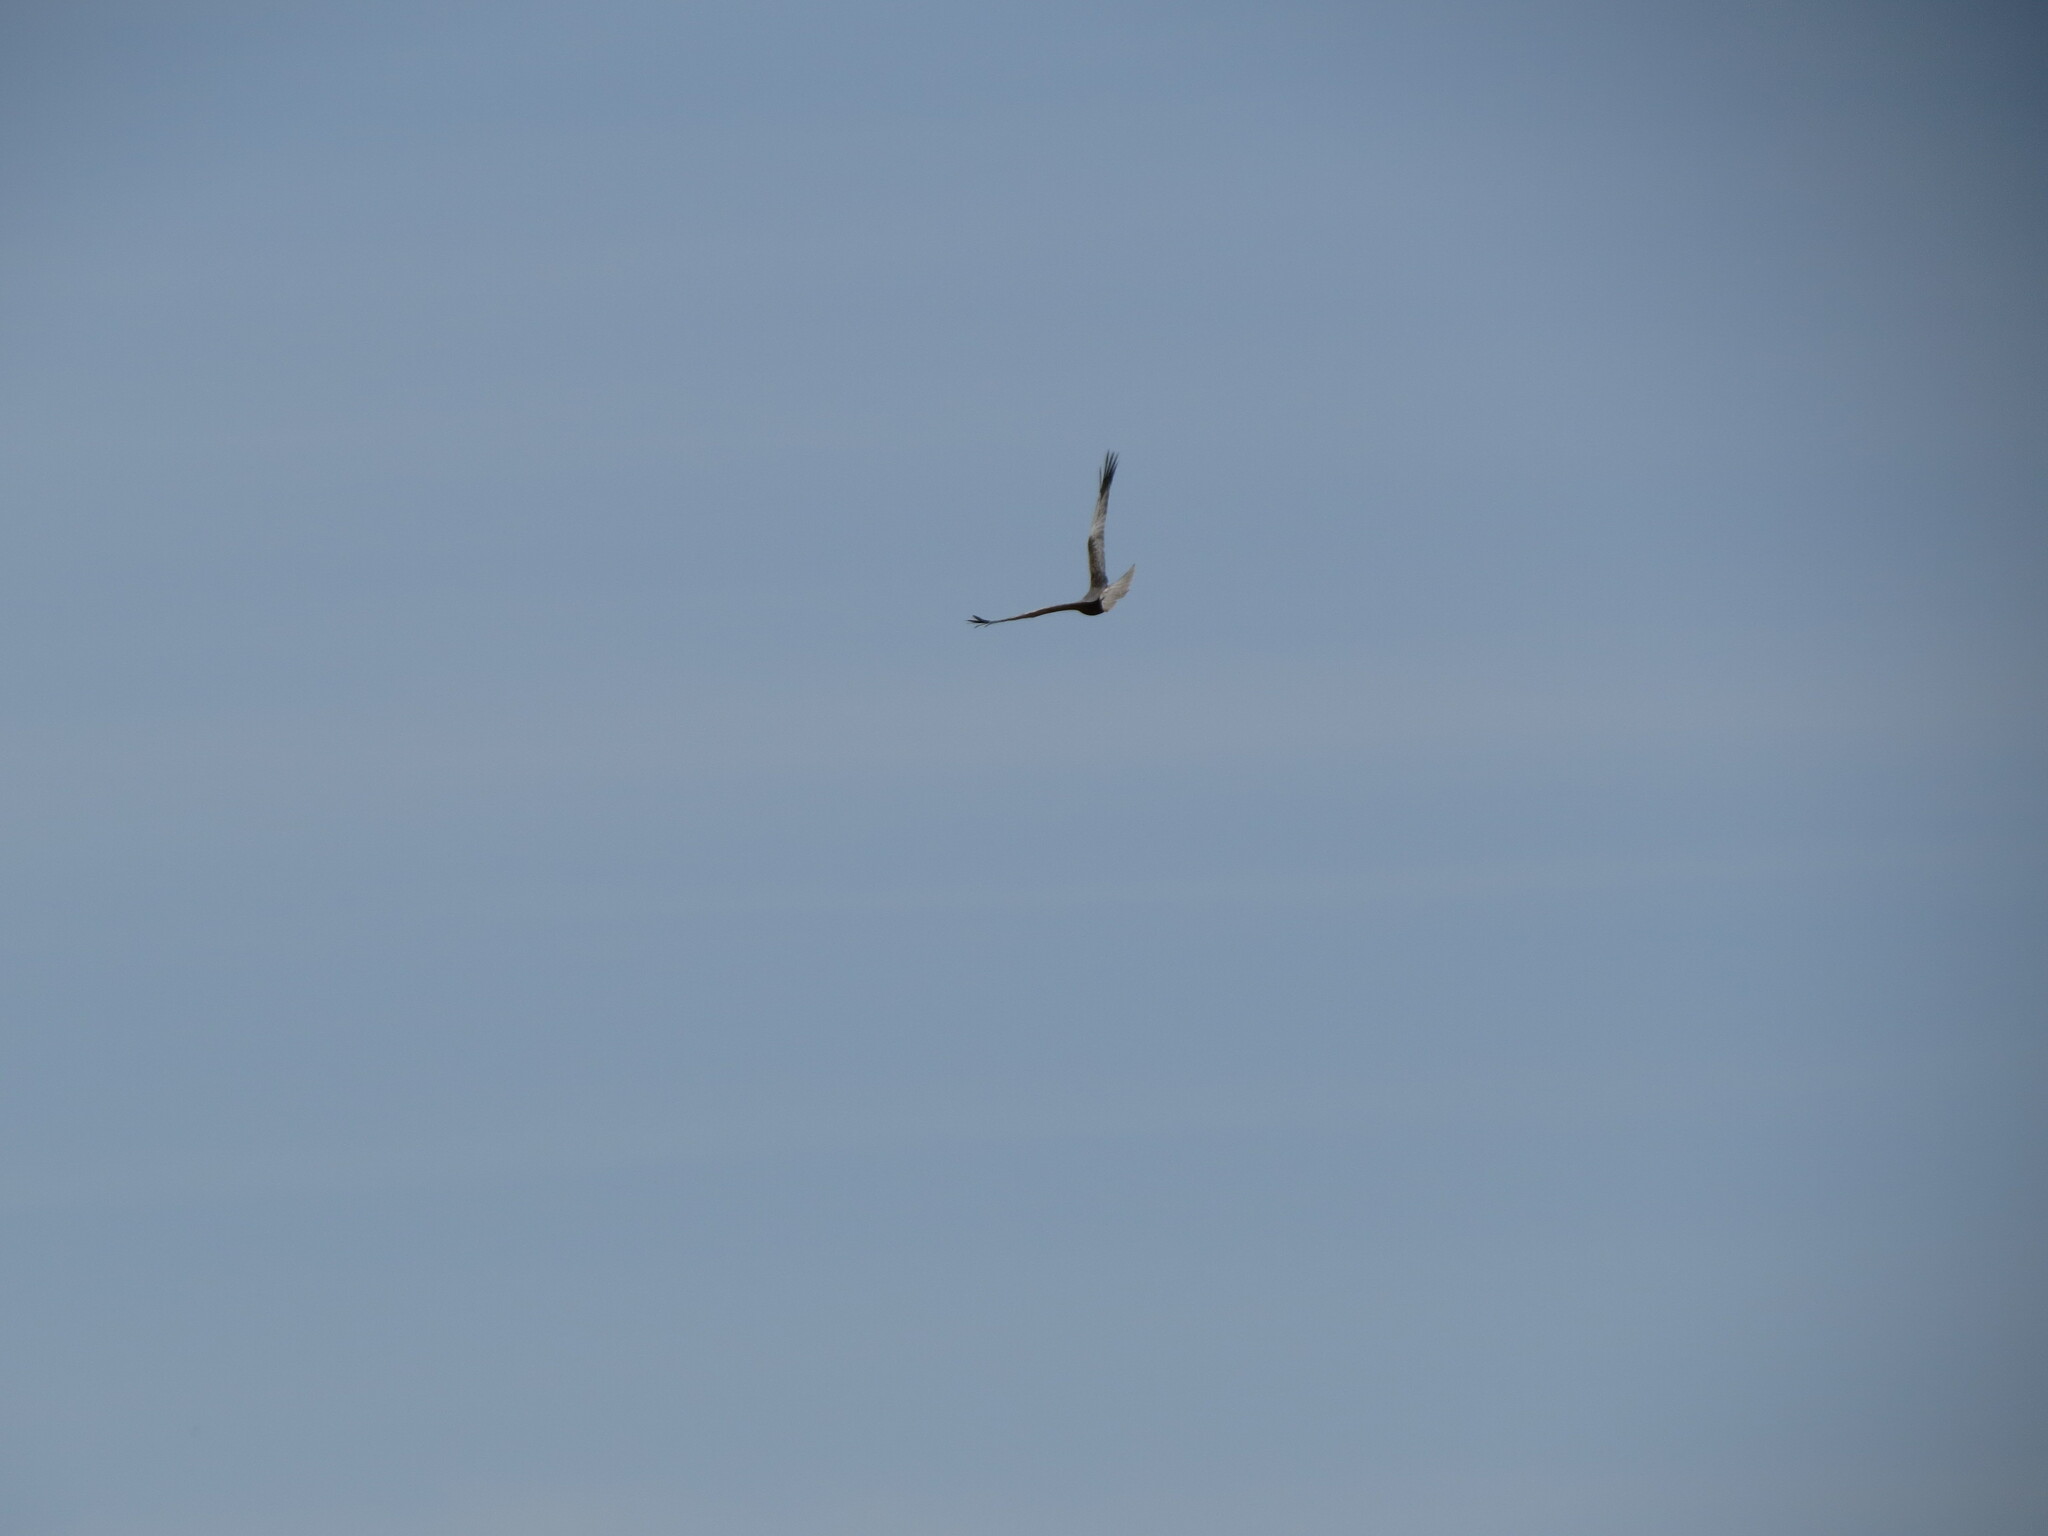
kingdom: Animalia
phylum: Chordata
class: Aves
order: Accipitriformes
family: Accipitridae
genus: Circus
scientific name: Circus aeruginosus
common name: Western marsh harrier
